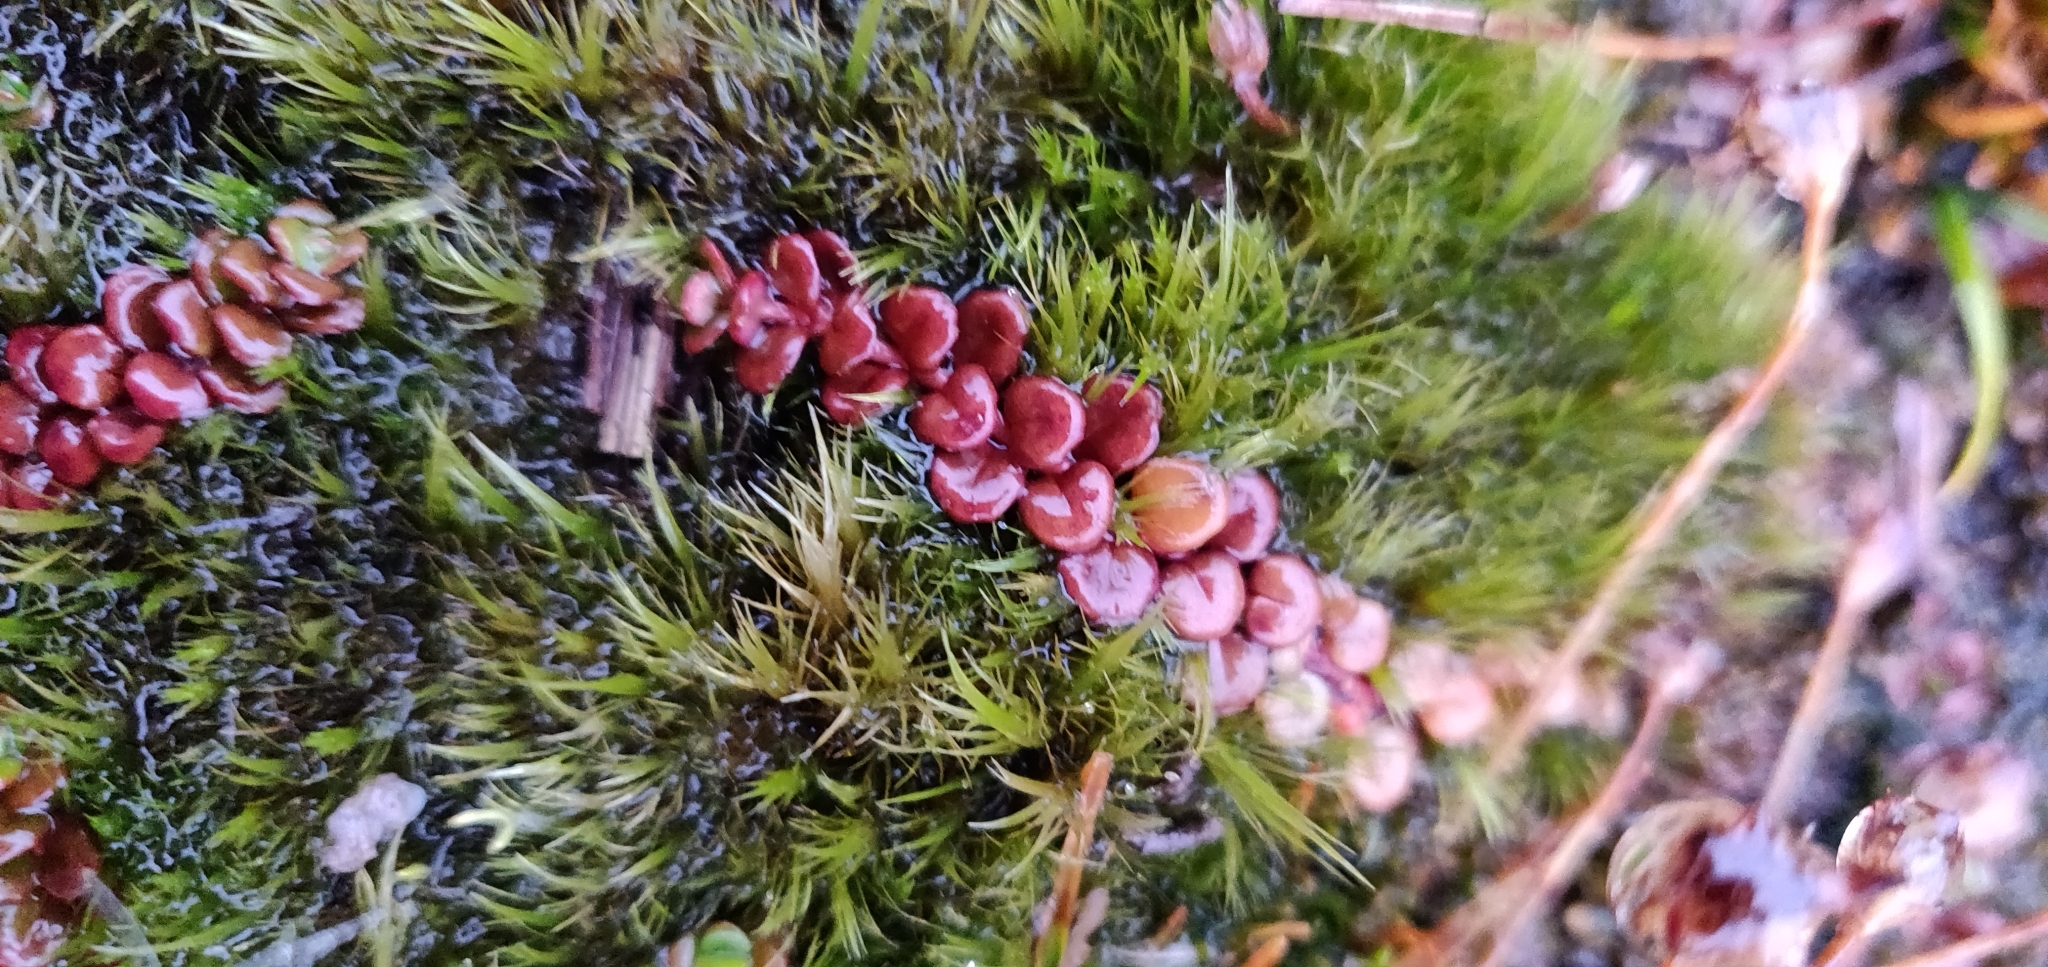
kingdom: Plantae
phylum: Tracheophyta
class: Magnoliopsida
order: Myrtales
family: Onagraceae
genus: Epilobium
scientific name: Epilobium pernitens
